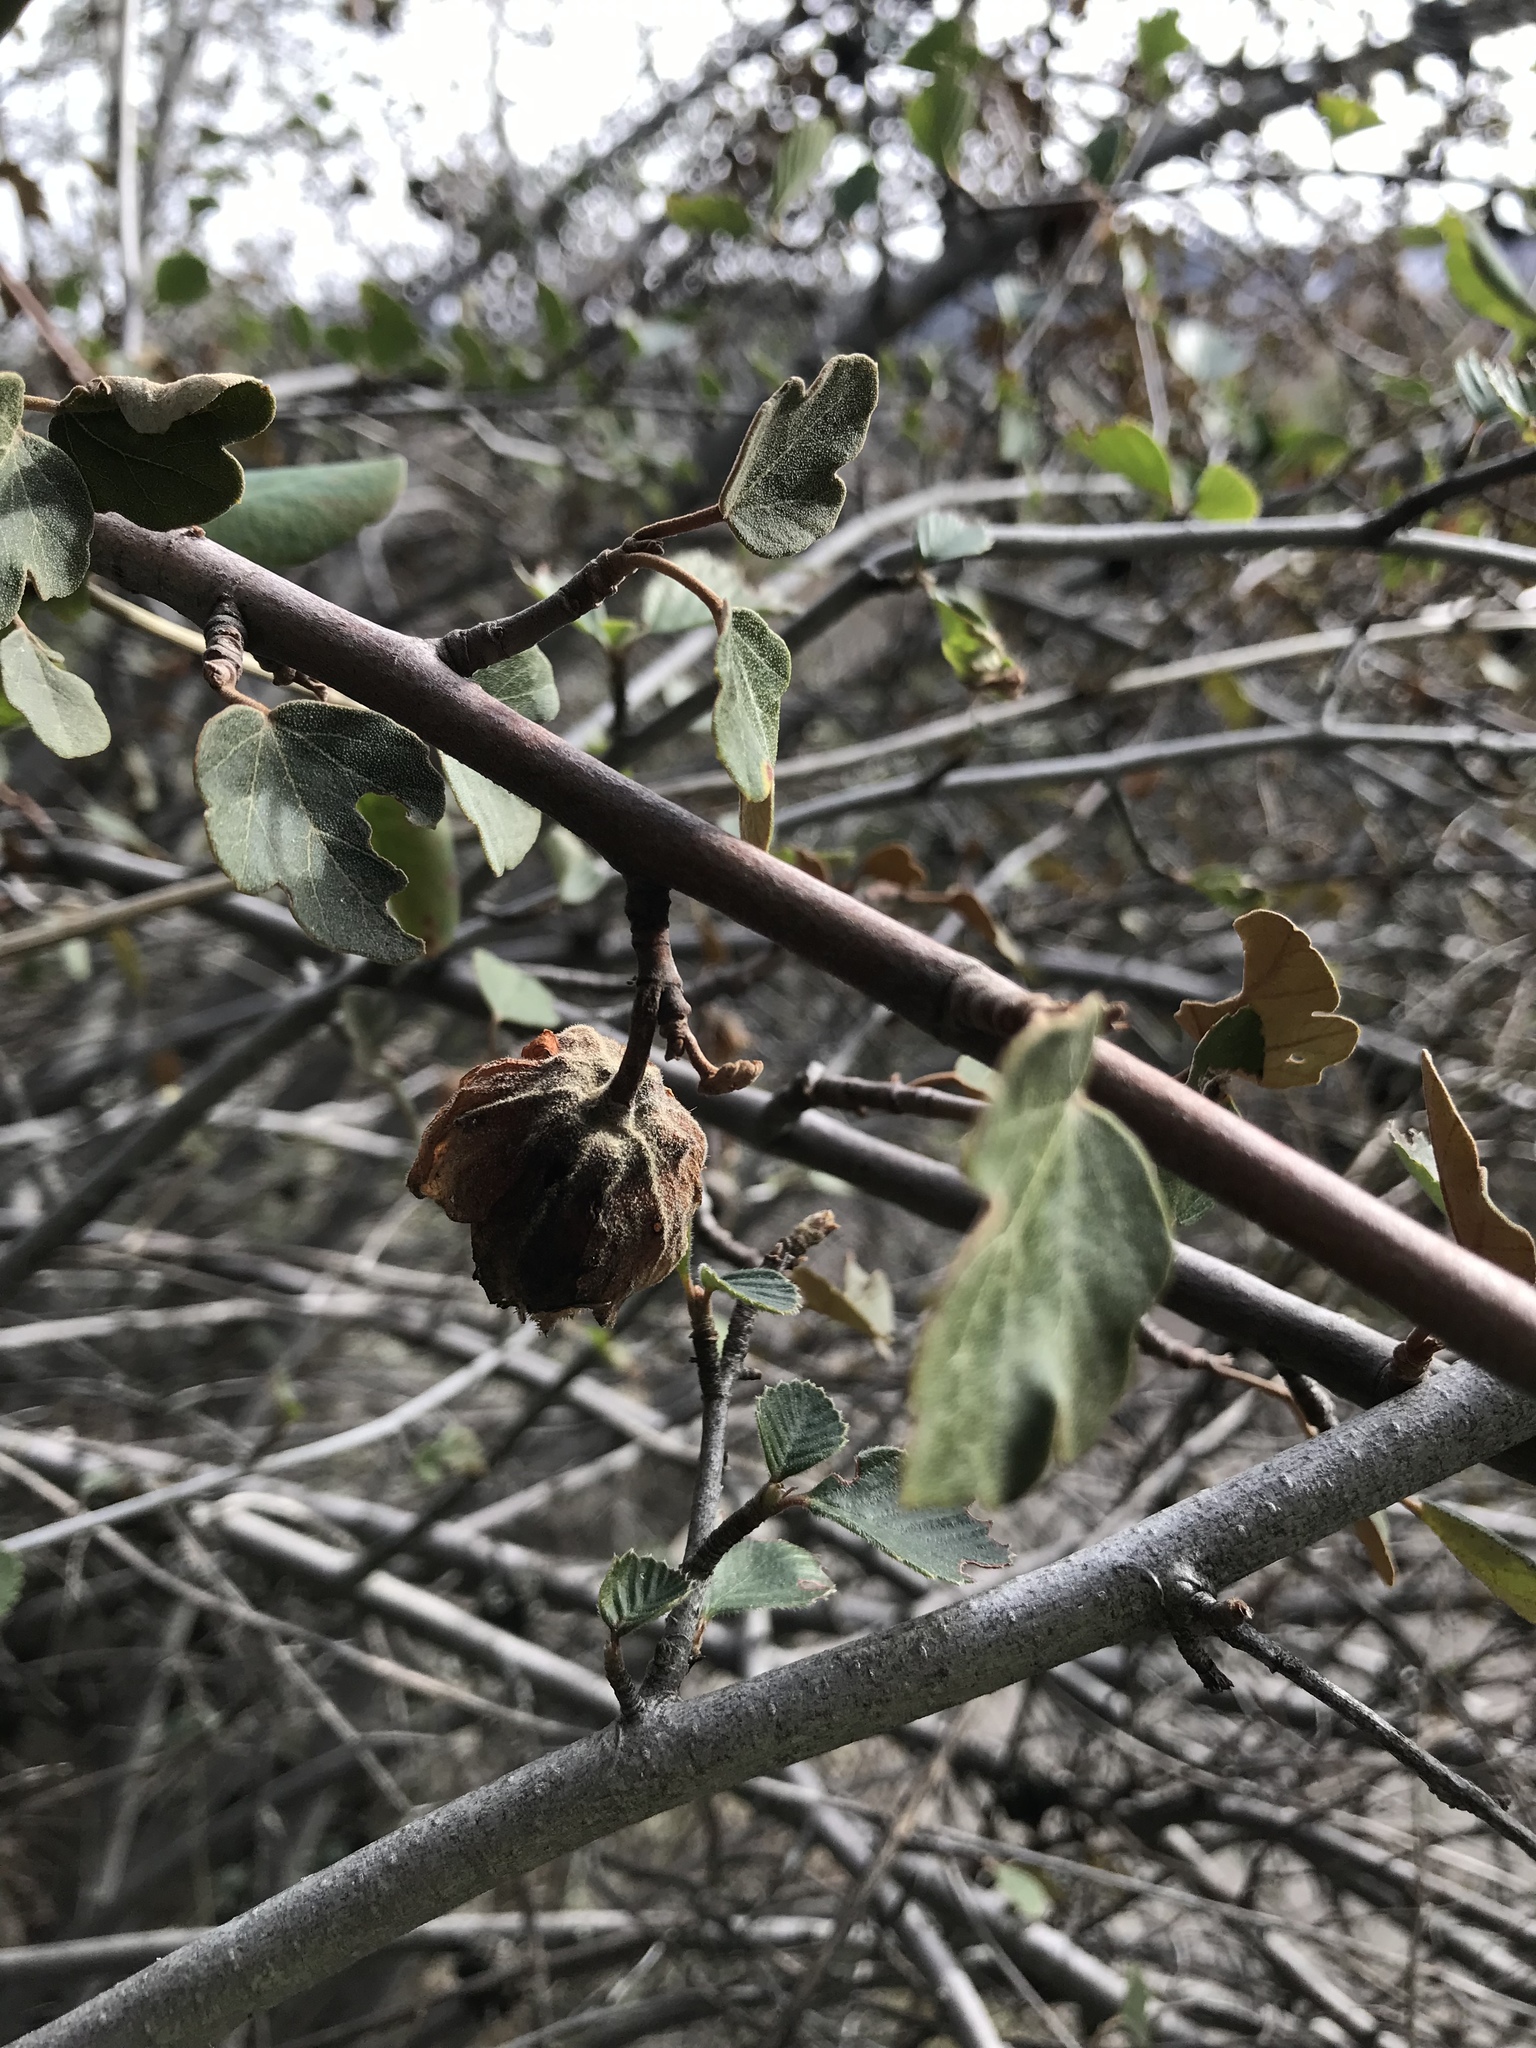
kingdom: Plantae
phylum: Tracheophyta
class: Magnoliopsida
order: Malvales
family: Malvaceae
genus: Fremontodendron
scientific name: Fremontodendron californicum
